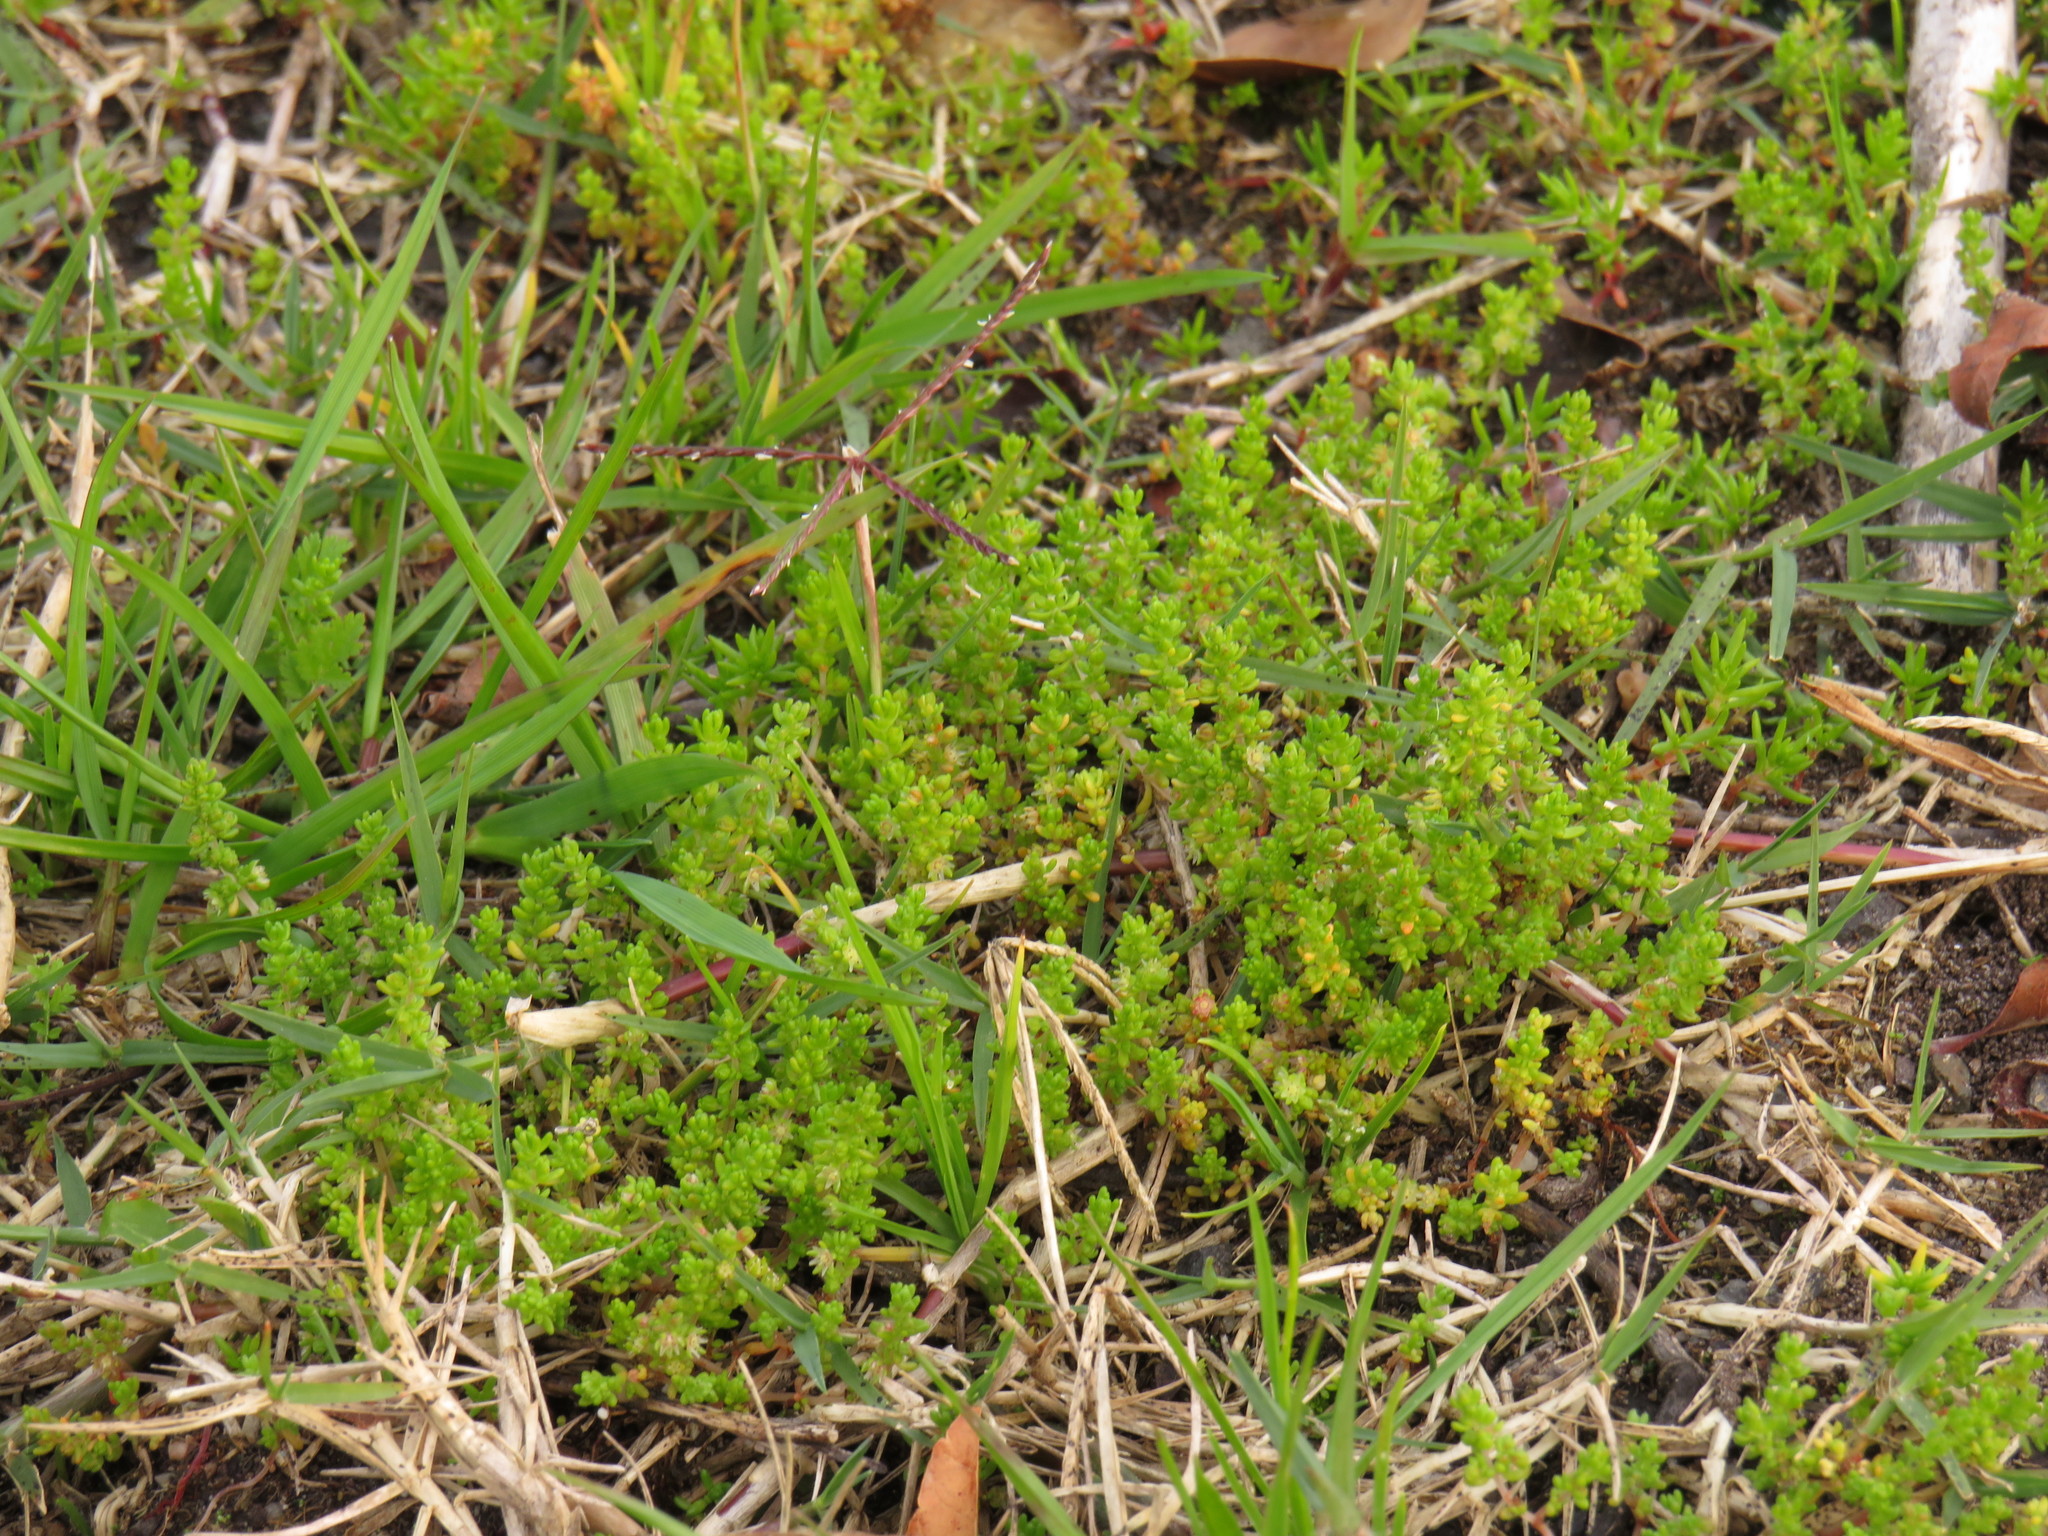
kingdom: Plantae
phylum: Tracheophyta
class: Magnoliopsida
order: Saxifragales
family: Crassulaceae
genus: Crassula
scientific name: Crassula thunbergiana
